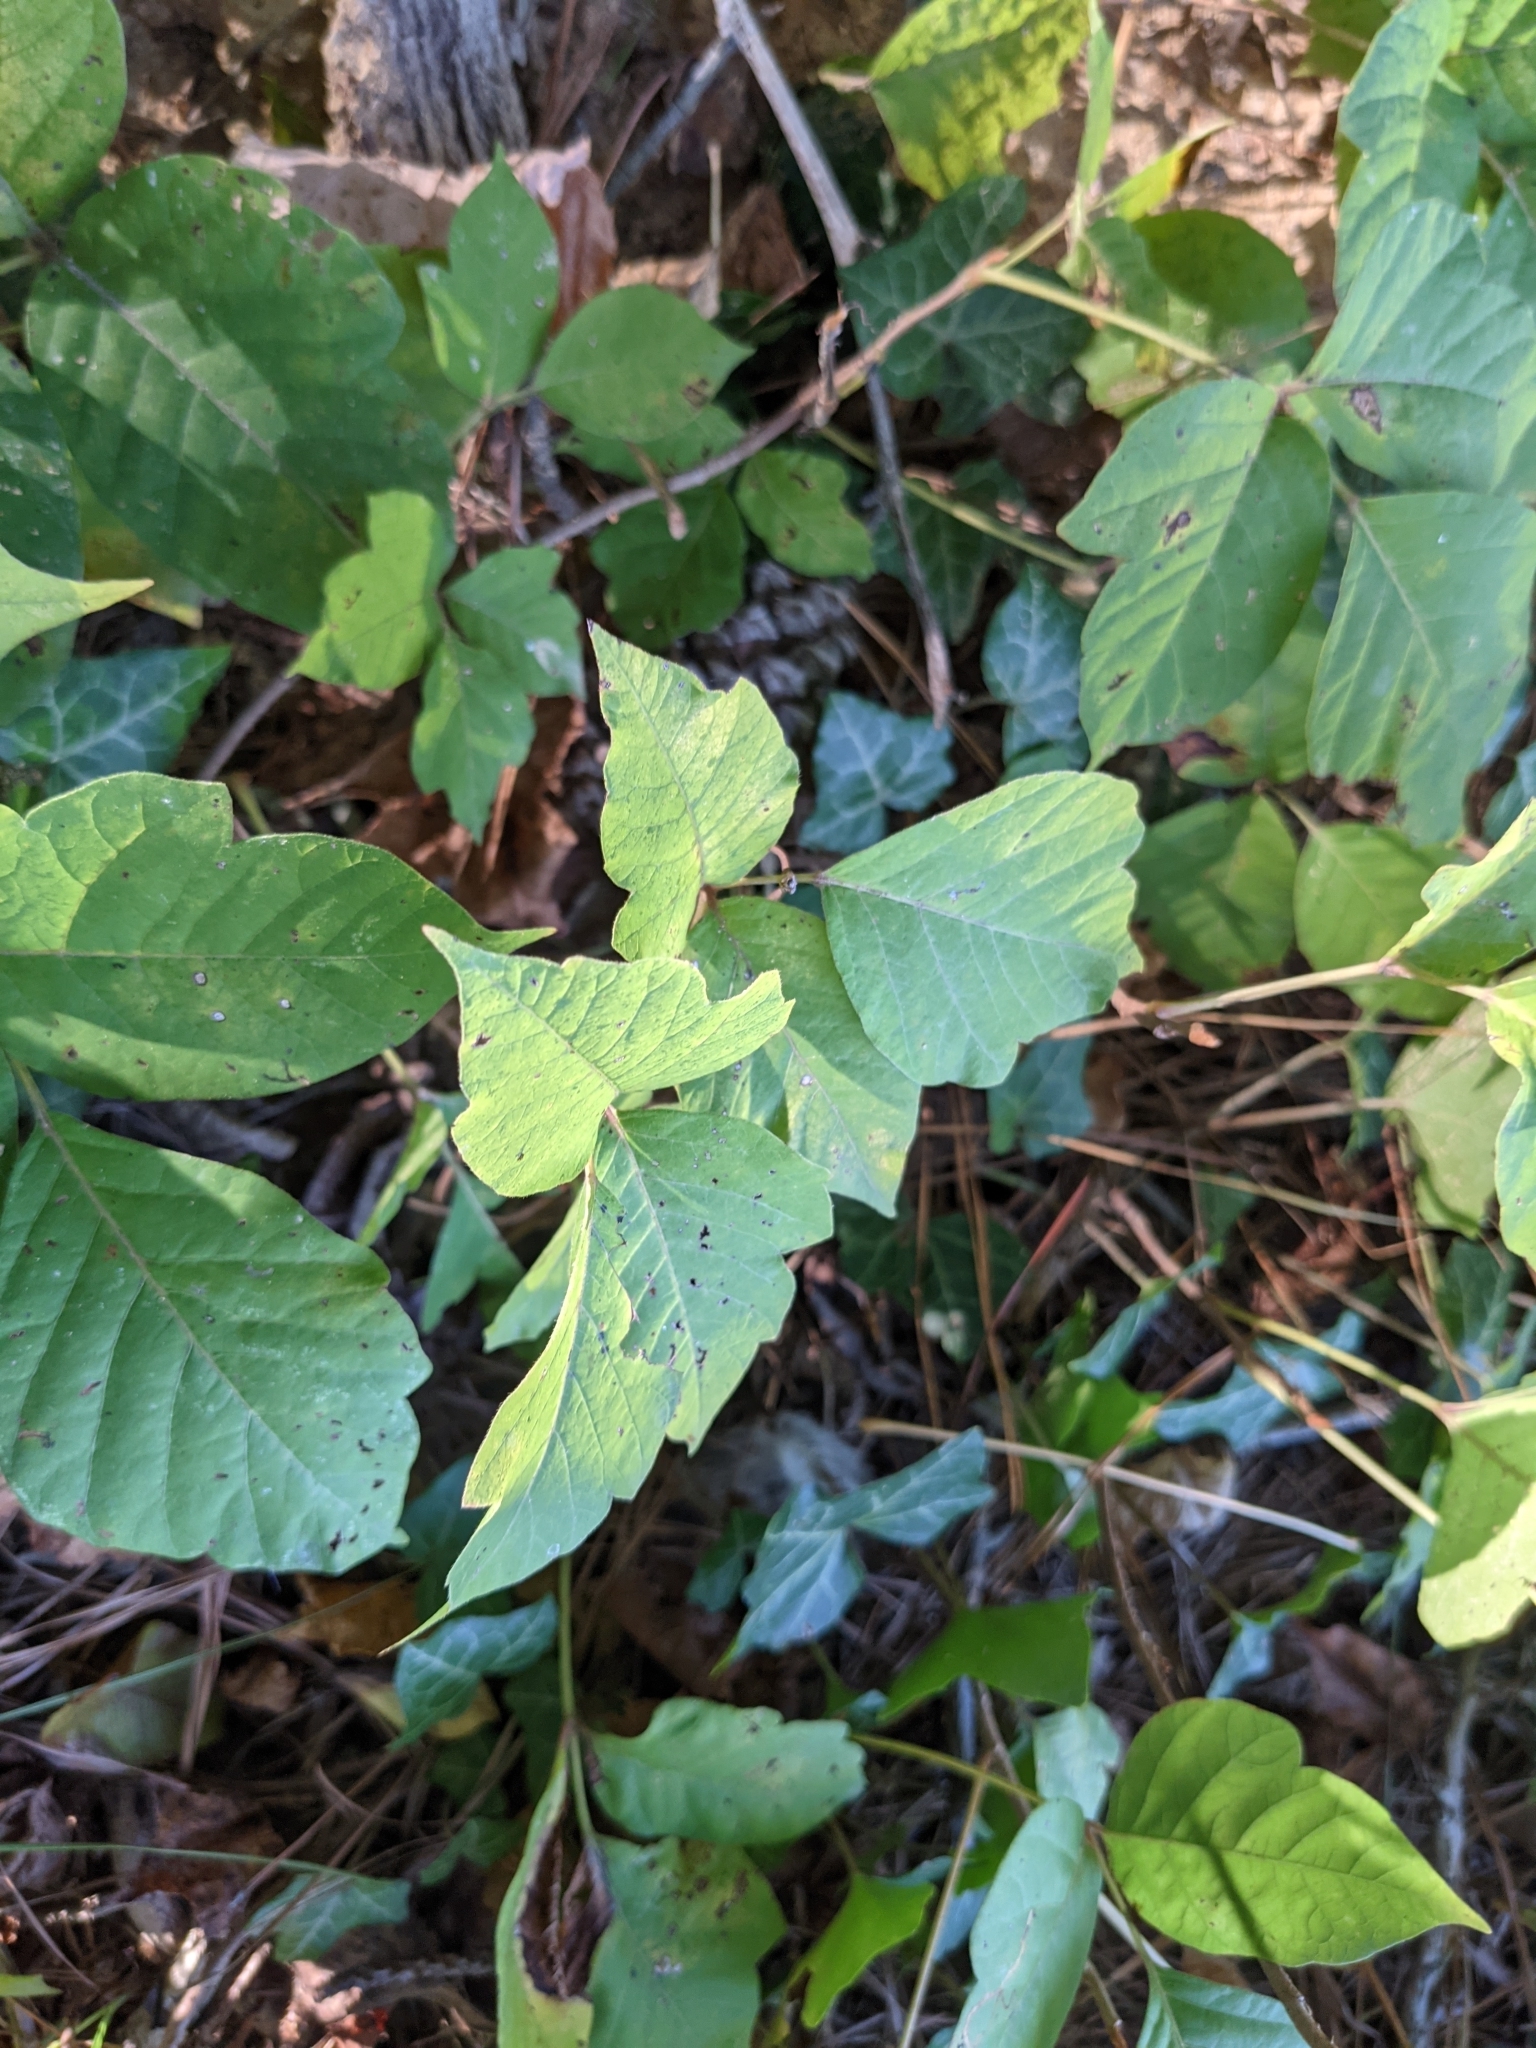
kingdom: Plantae
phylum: Tracheophyta
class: Magnoliopsida
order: Sapindales
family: Anacardiaceae
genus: Toxicodendron
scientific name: Toxicodendron radicans
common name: Poison ivy
